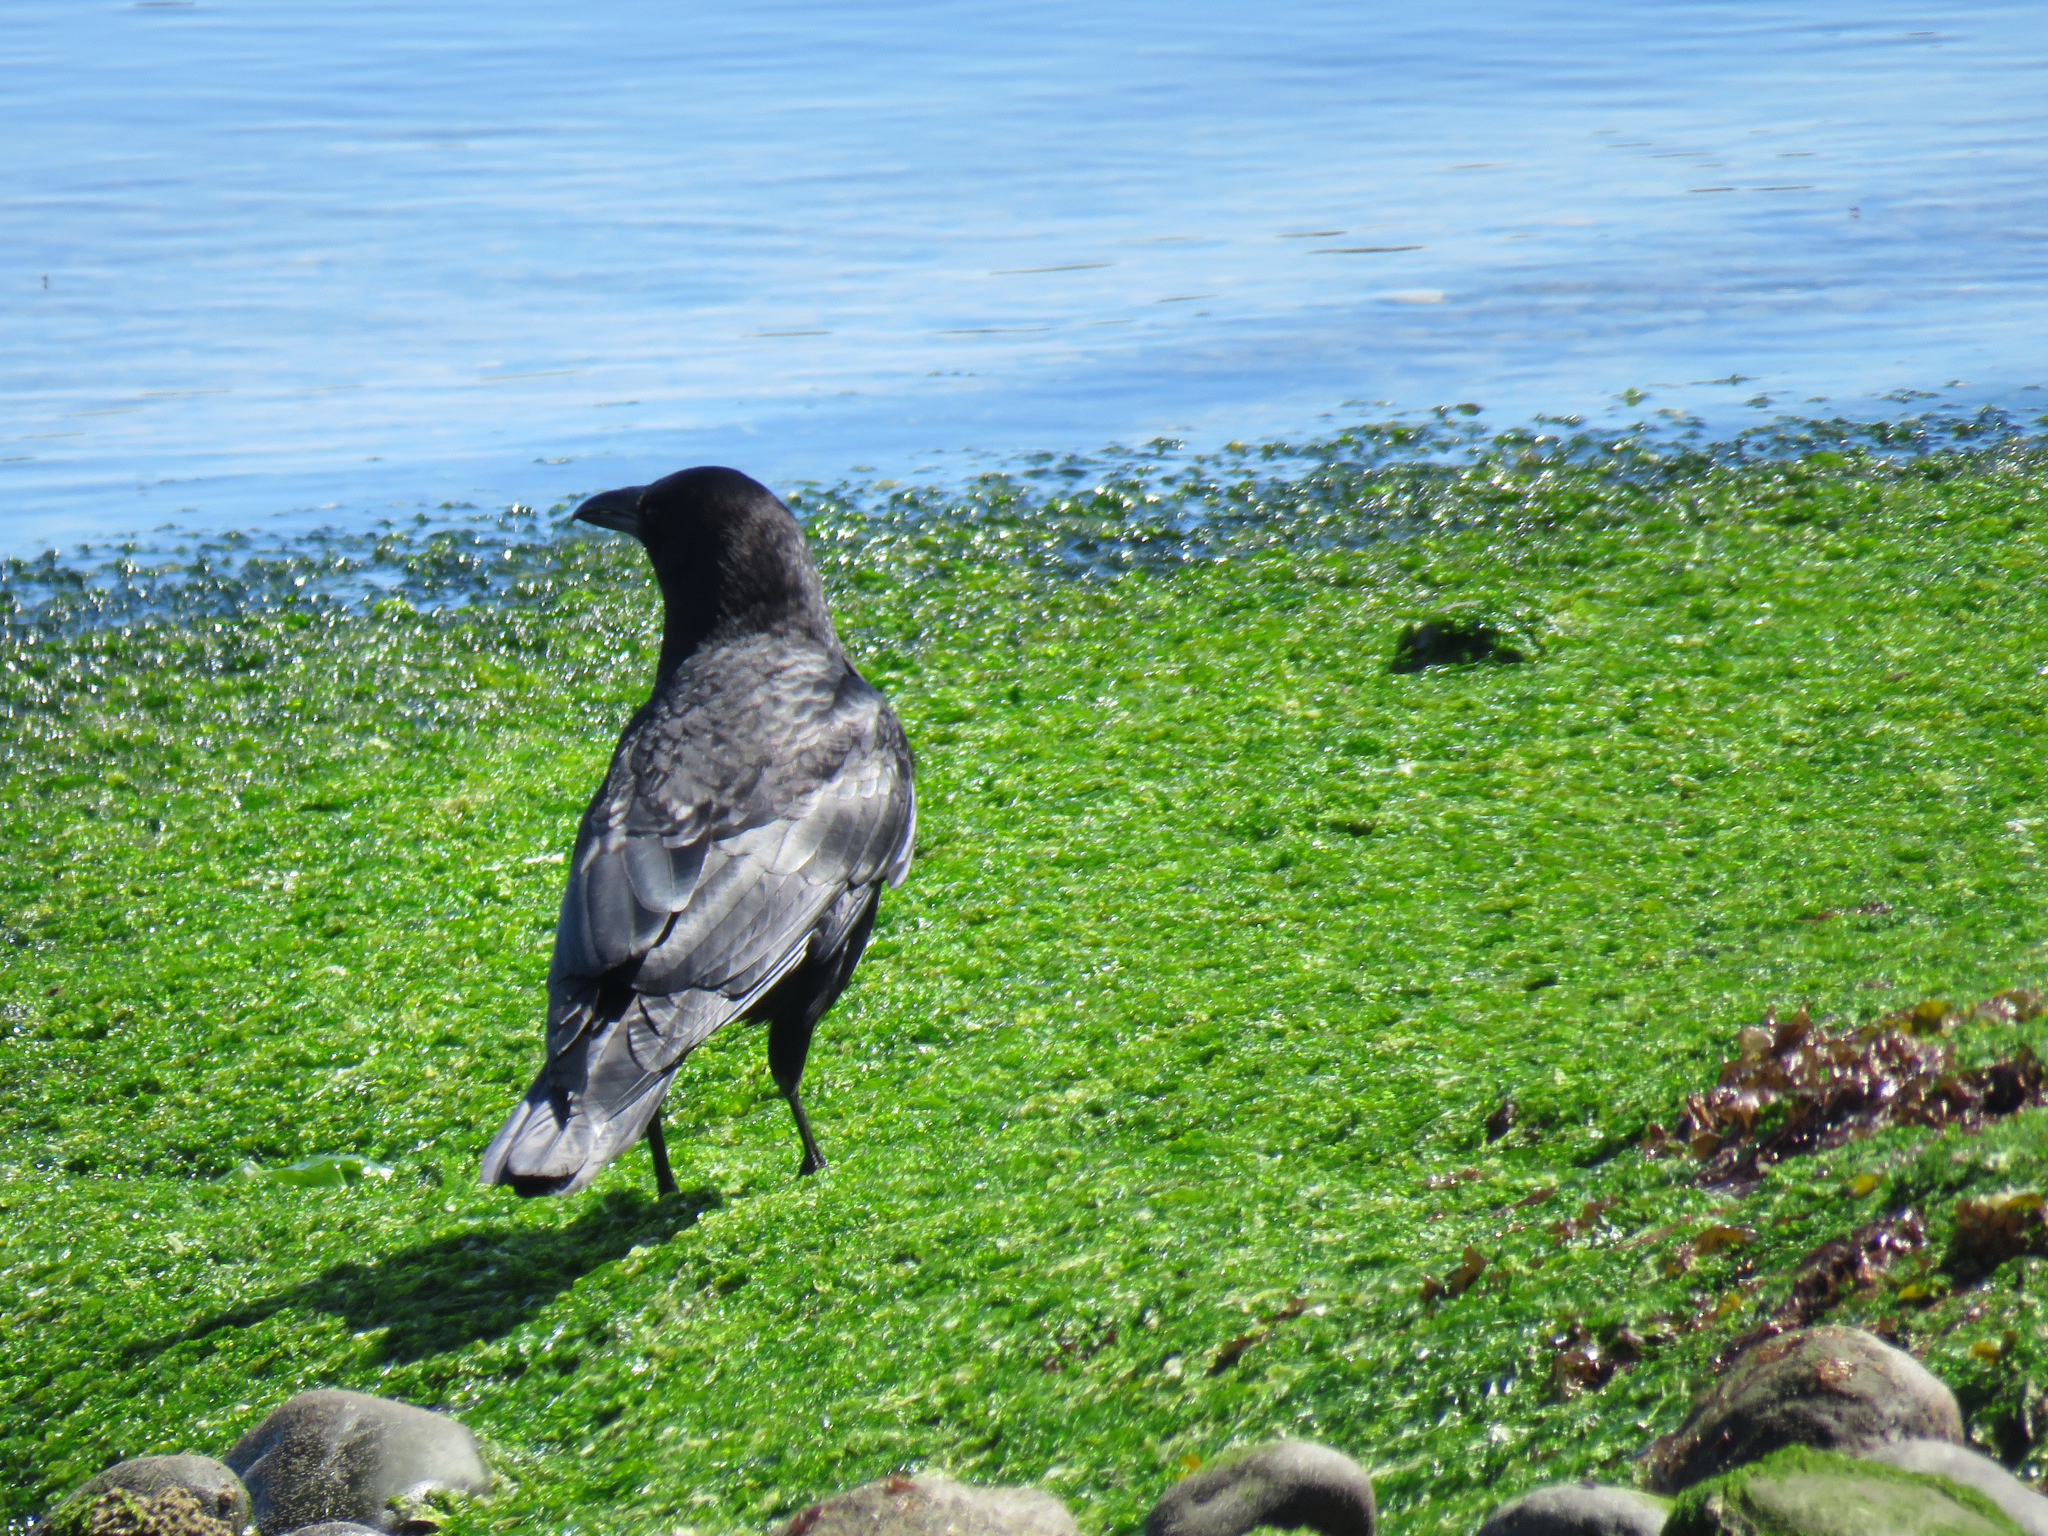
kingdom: Animalia
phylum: Chordata
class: Aves
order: Passeriformes
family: Corvidae
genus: Corvus
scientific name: Corvus brachyrhynchos
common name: American crow
